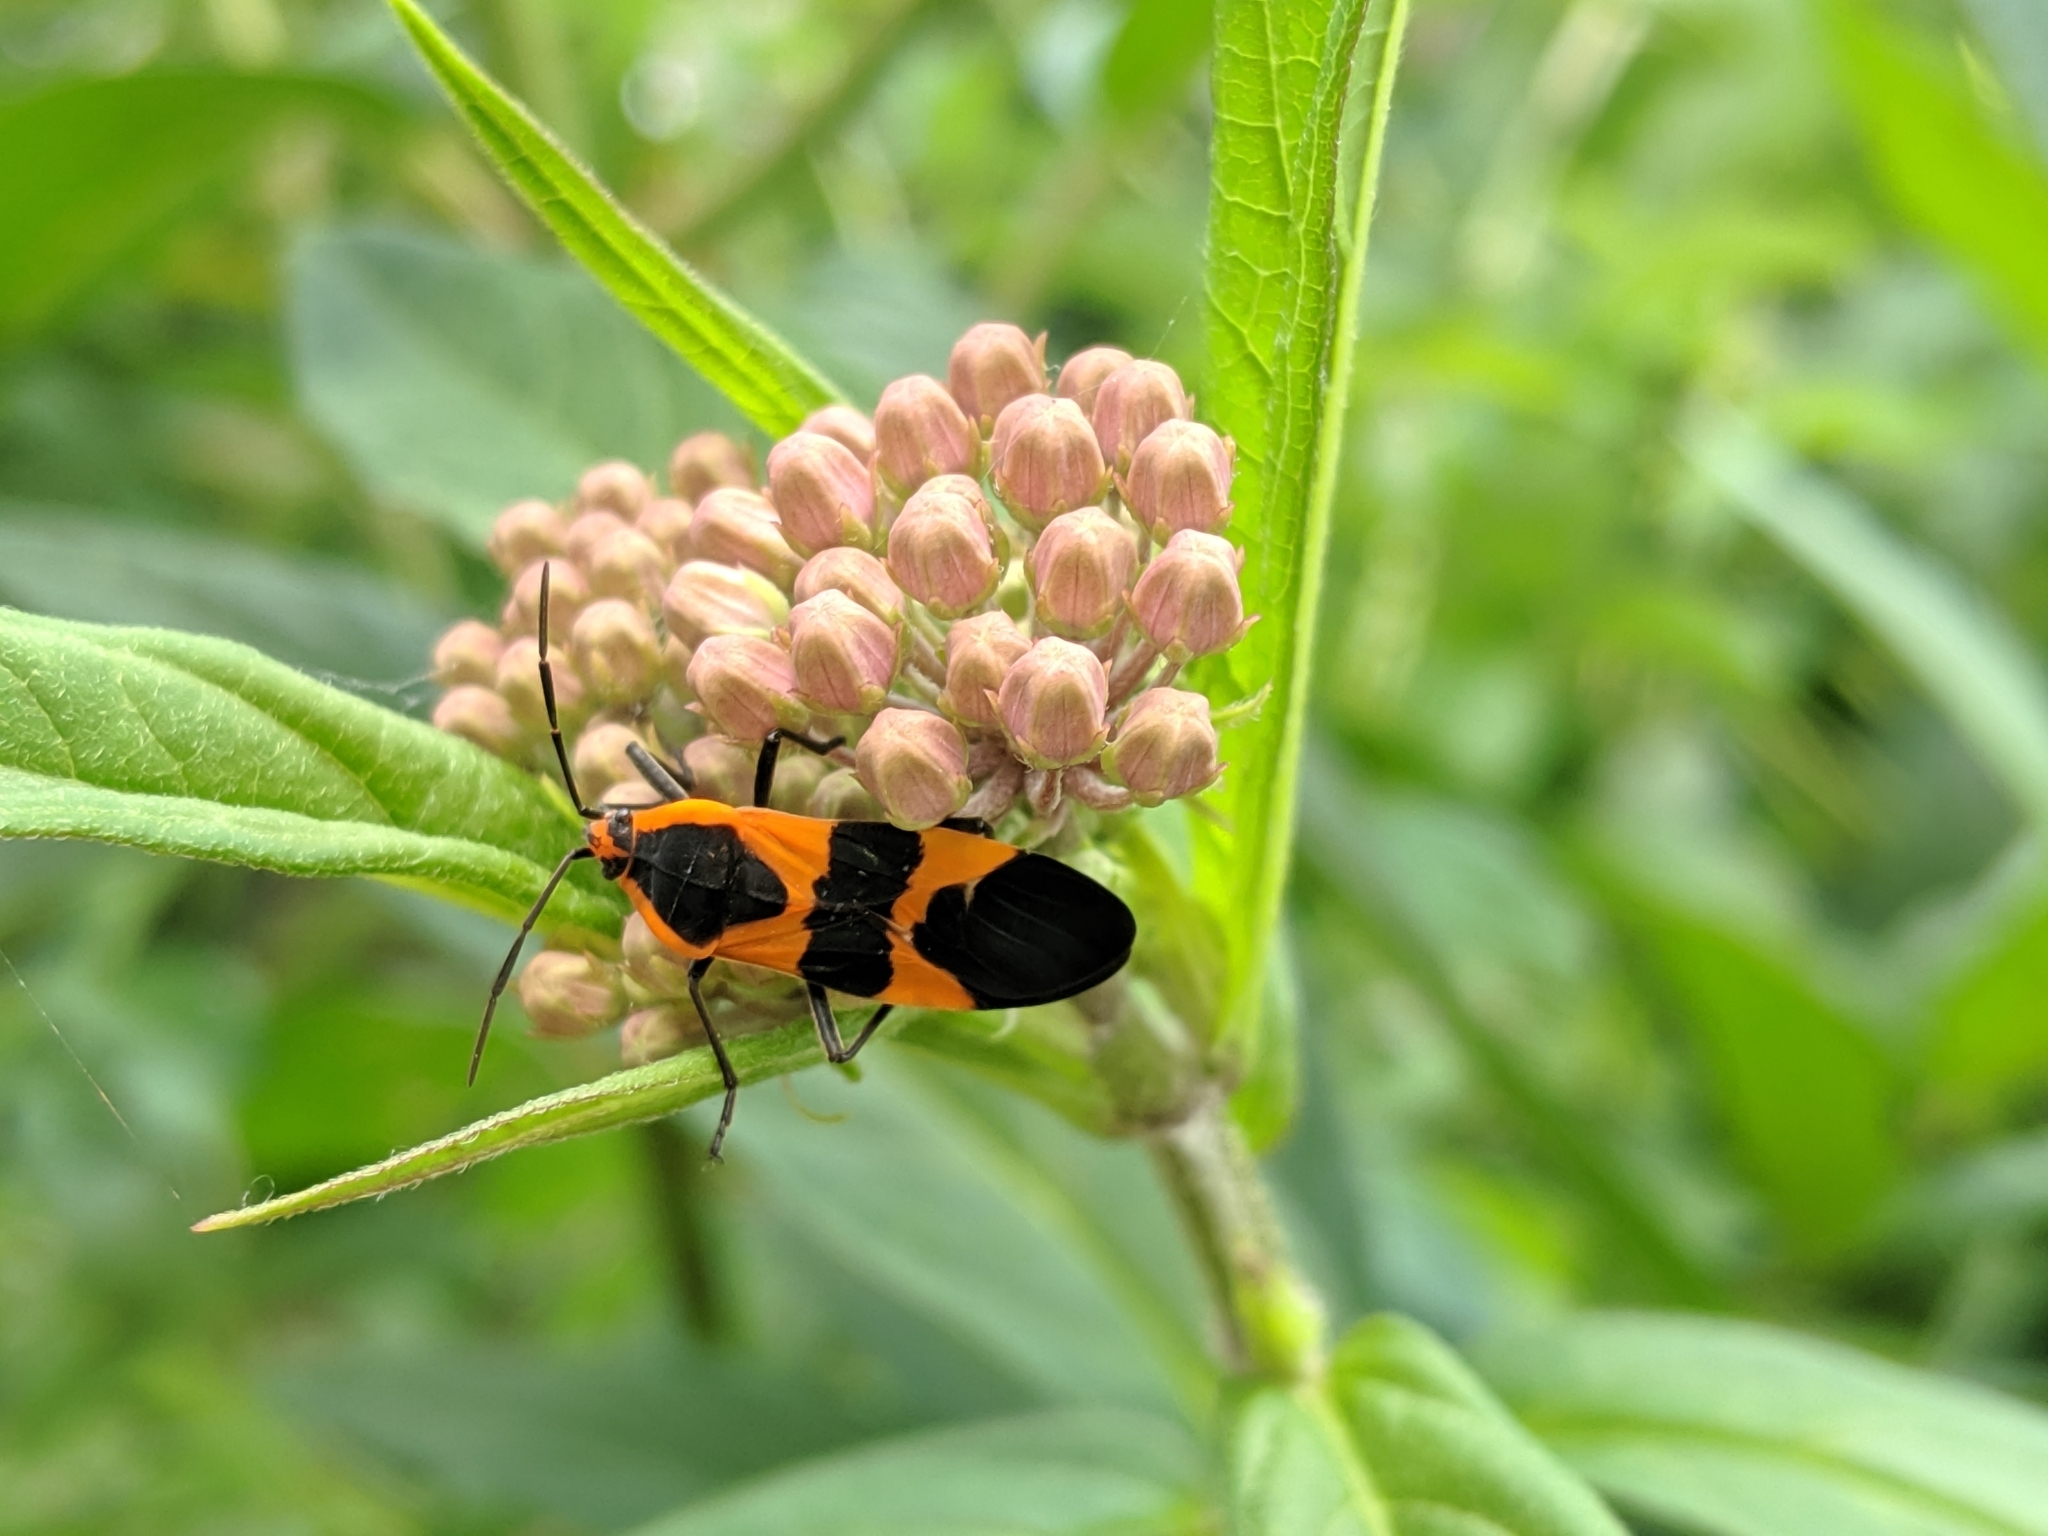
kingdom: Animalia
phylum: Arthropoda
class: Insecta
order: Hemiptera
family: Lygaeidae
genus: Oncopeltus
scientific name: Oncopeltus fasciatus
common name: Large milkweed bug
